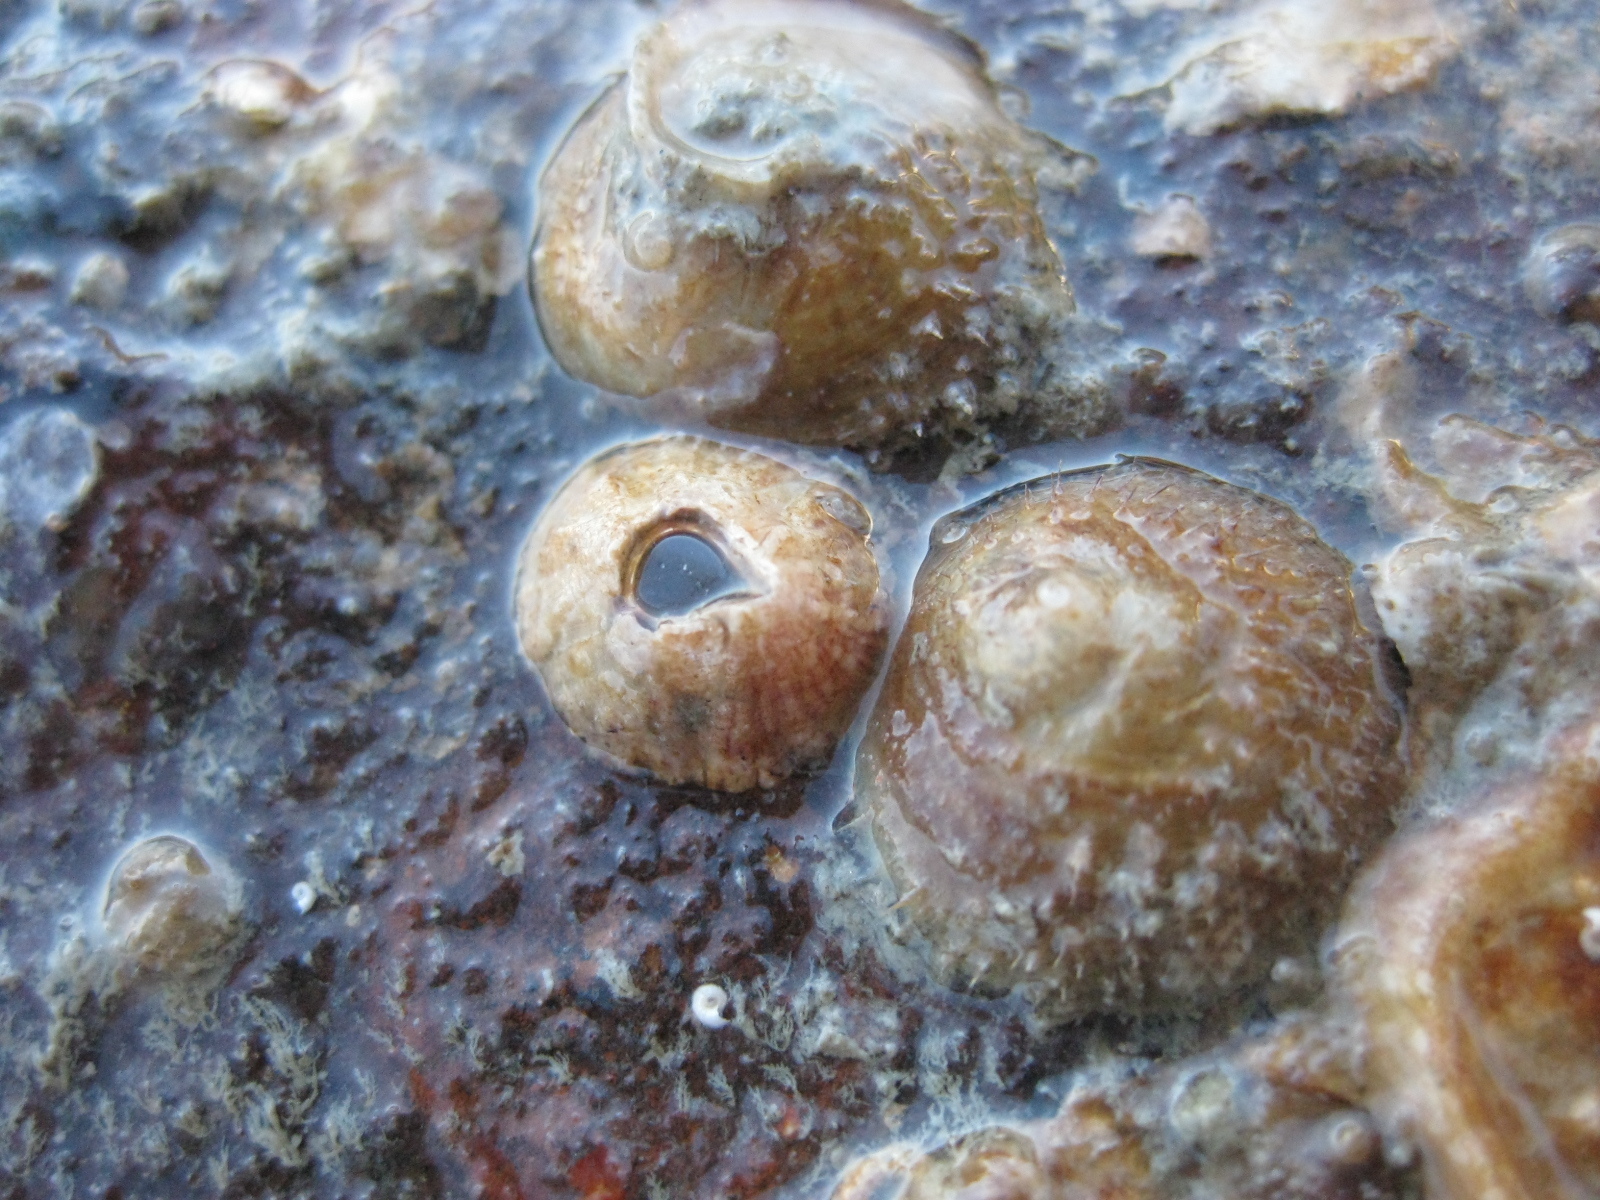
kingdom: Animalia
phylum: Mollusca
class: Gastropoda
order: Littorinimorpha
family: Calyptraeidae
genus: Sigapatella
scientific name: Sigapatella novaezelandiae
